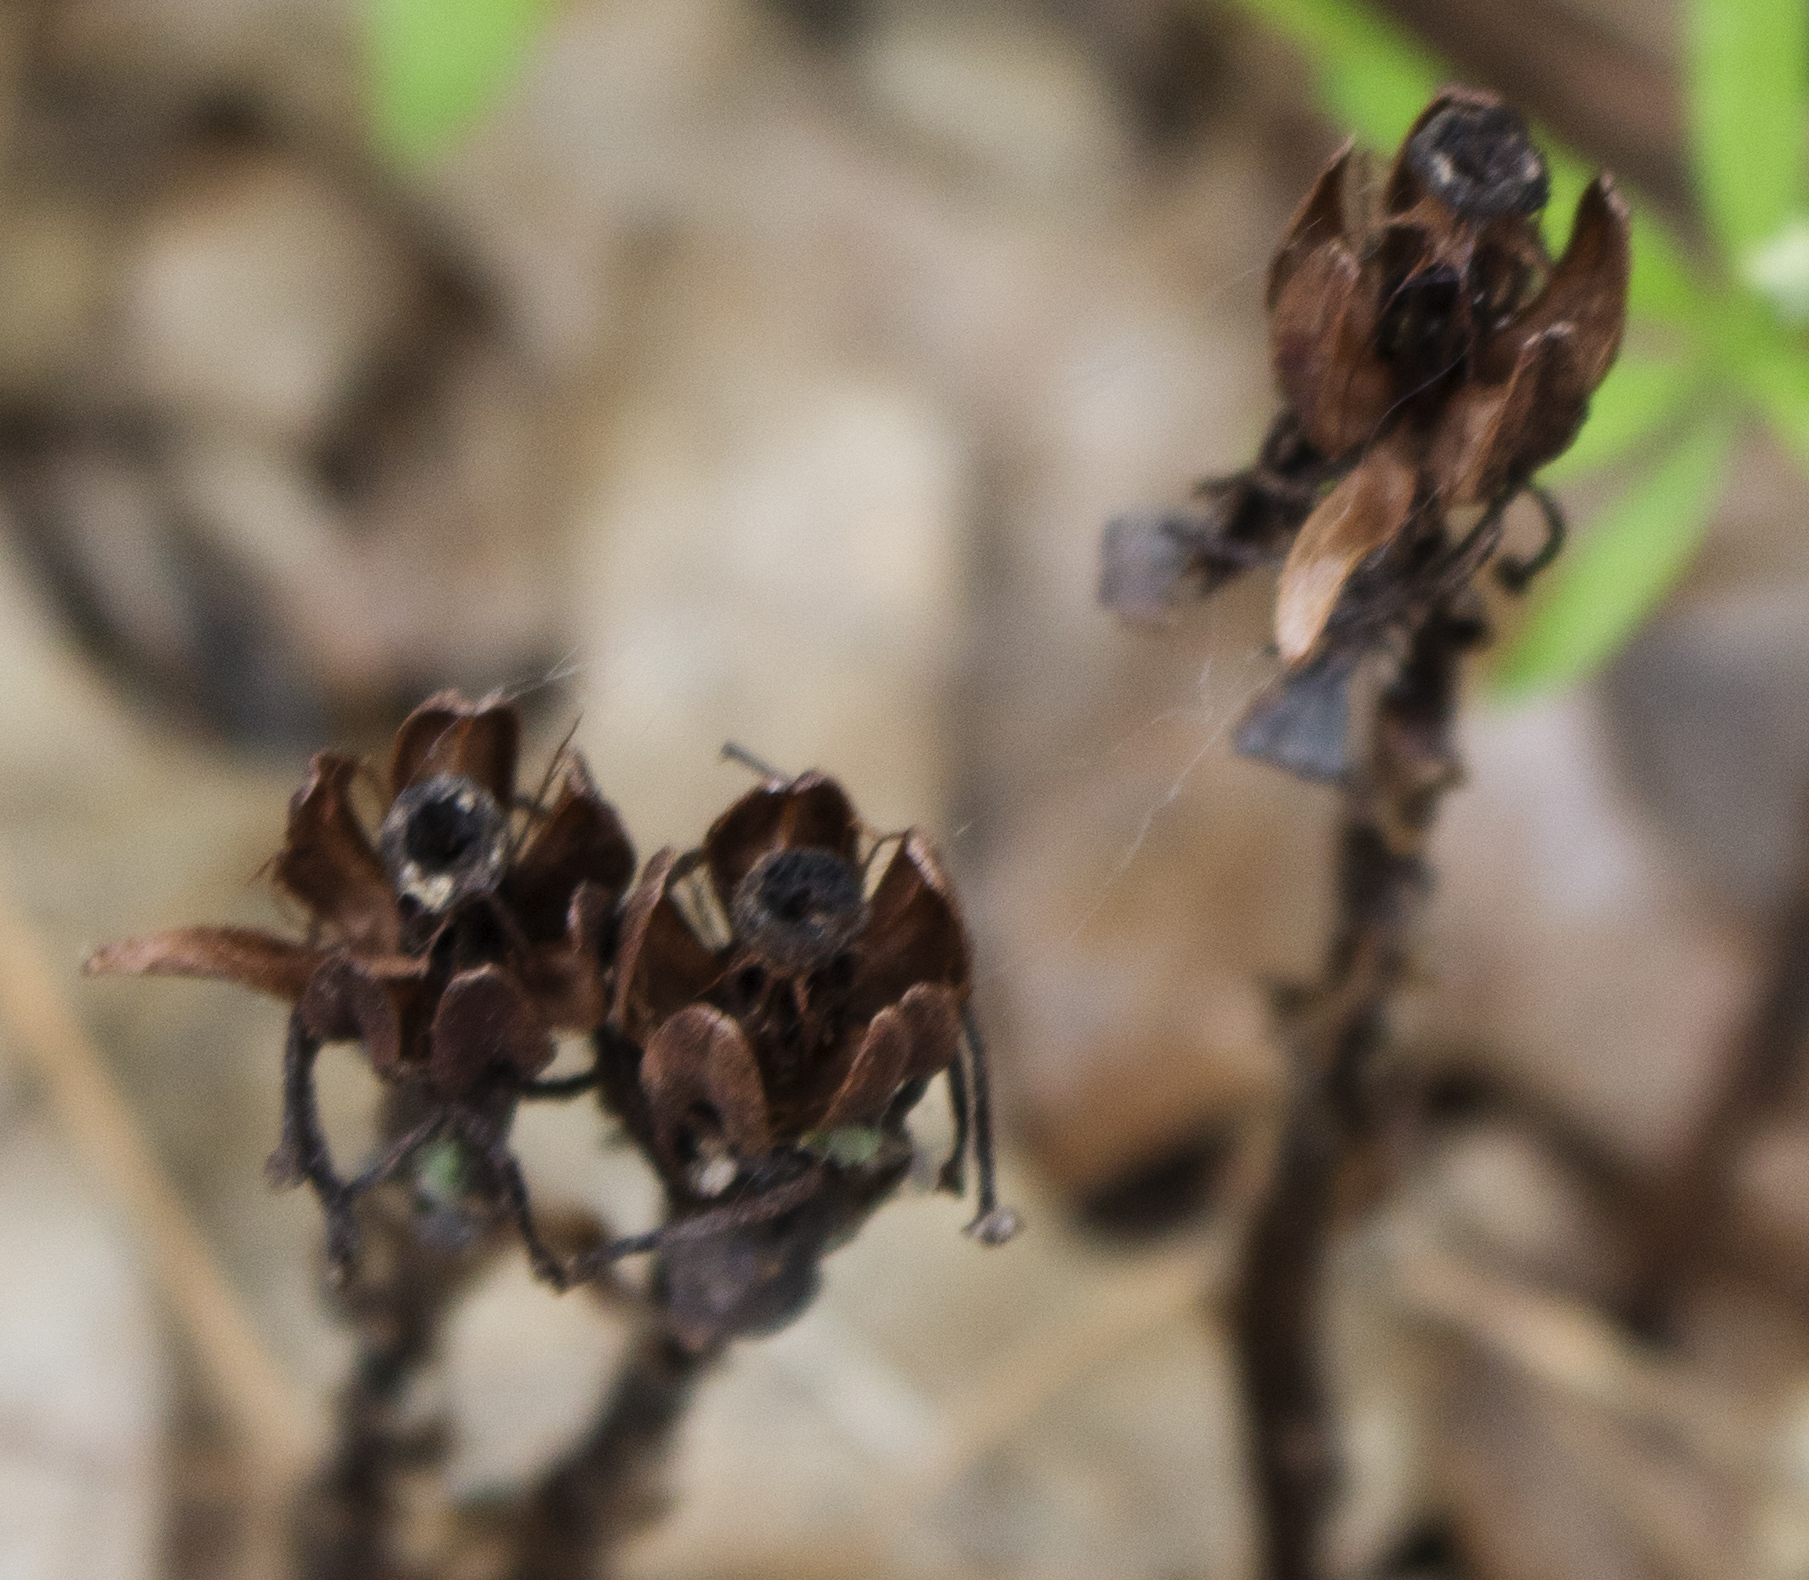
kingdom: Plantae
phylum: Tracheophyta
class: Magnoliopsida
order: Ericales
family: Ericaceae
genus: Monotropa
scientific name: Monotropa uniflora
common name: Convulsion root
